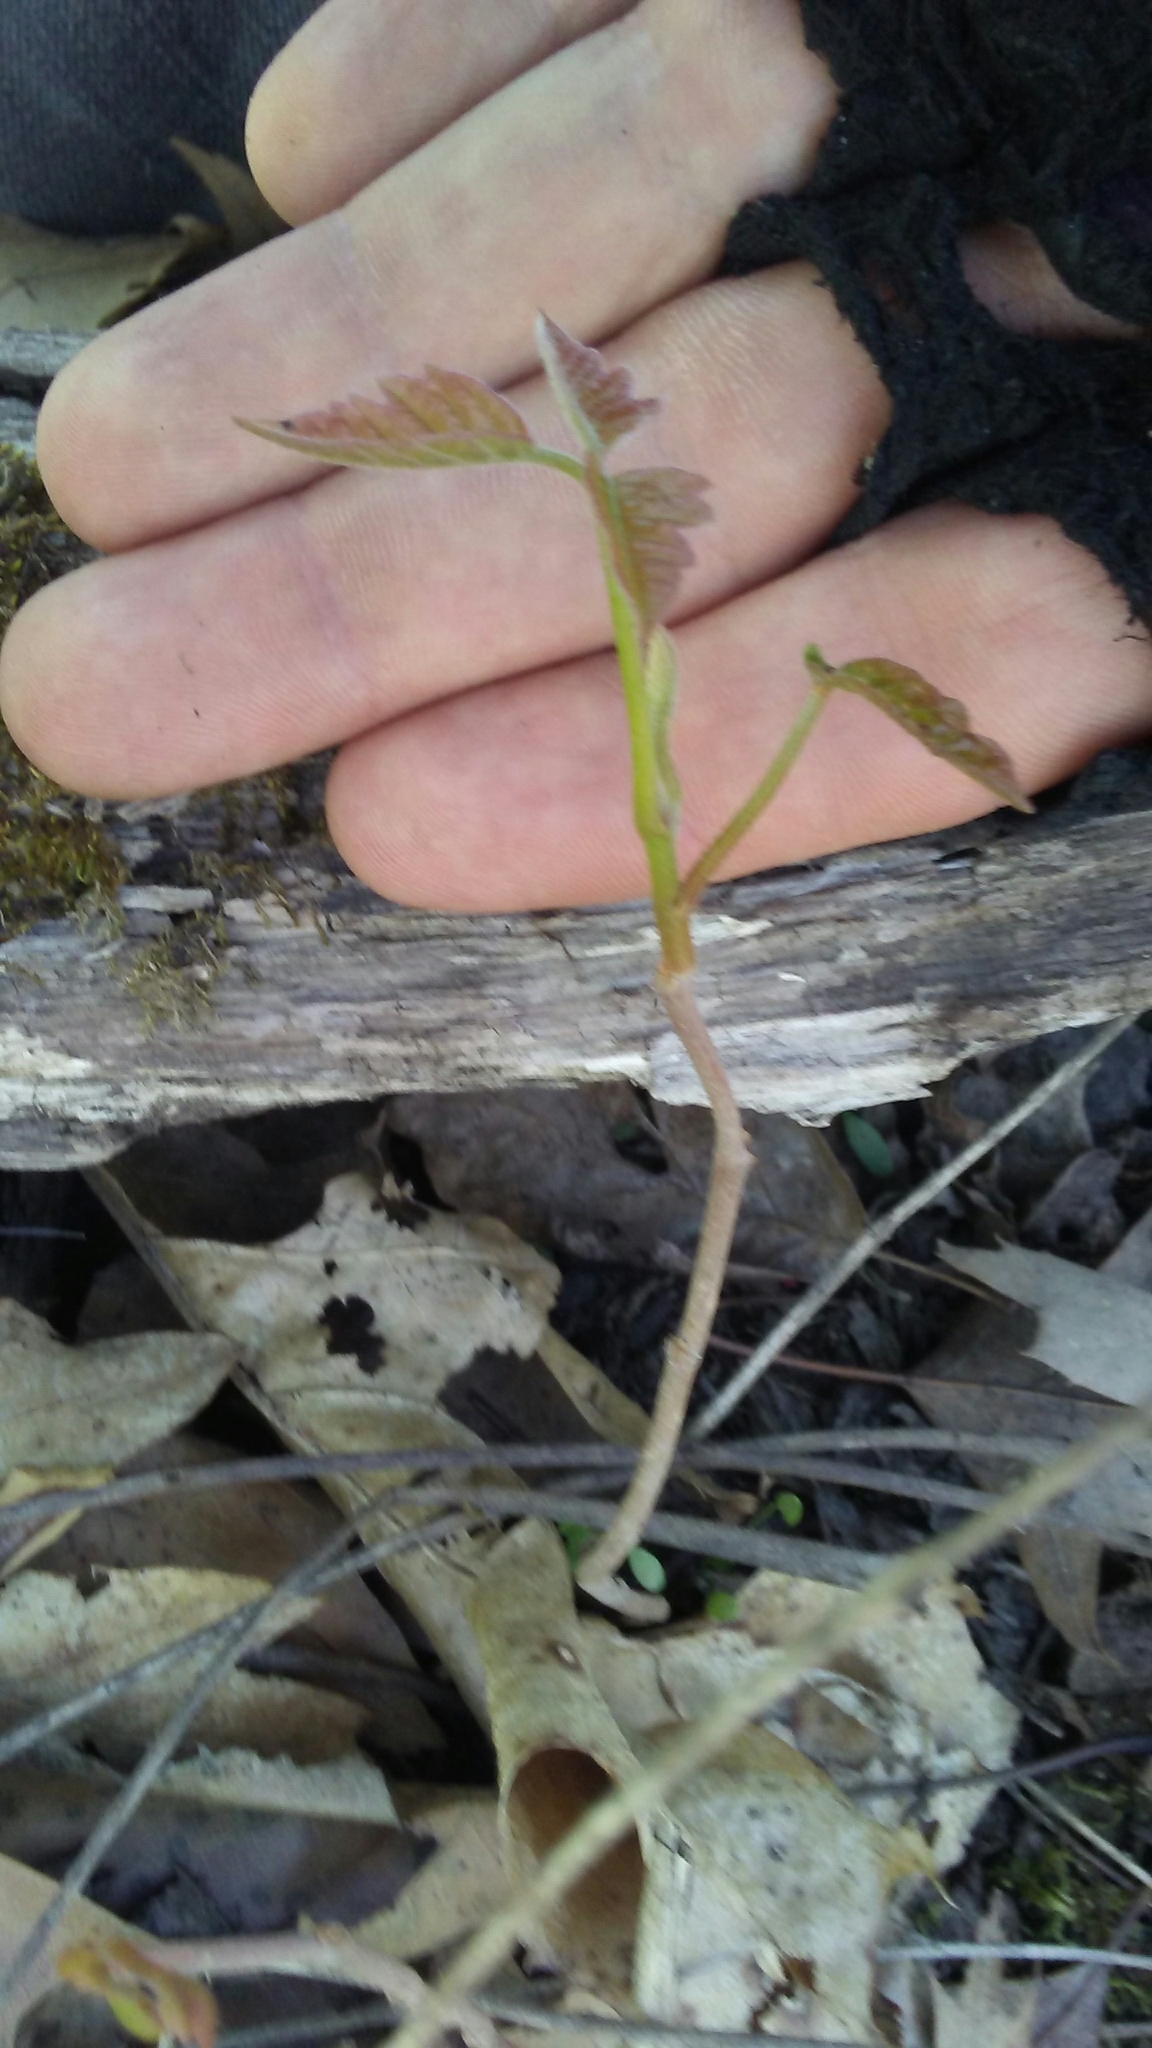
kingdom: Plantae
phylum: Tracheophyta
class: Magnoliopsida
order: Sapindales
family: Anacardiaceae
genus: Toxicodendron
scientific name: Toxicodendron radicans
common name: Poison ivy
